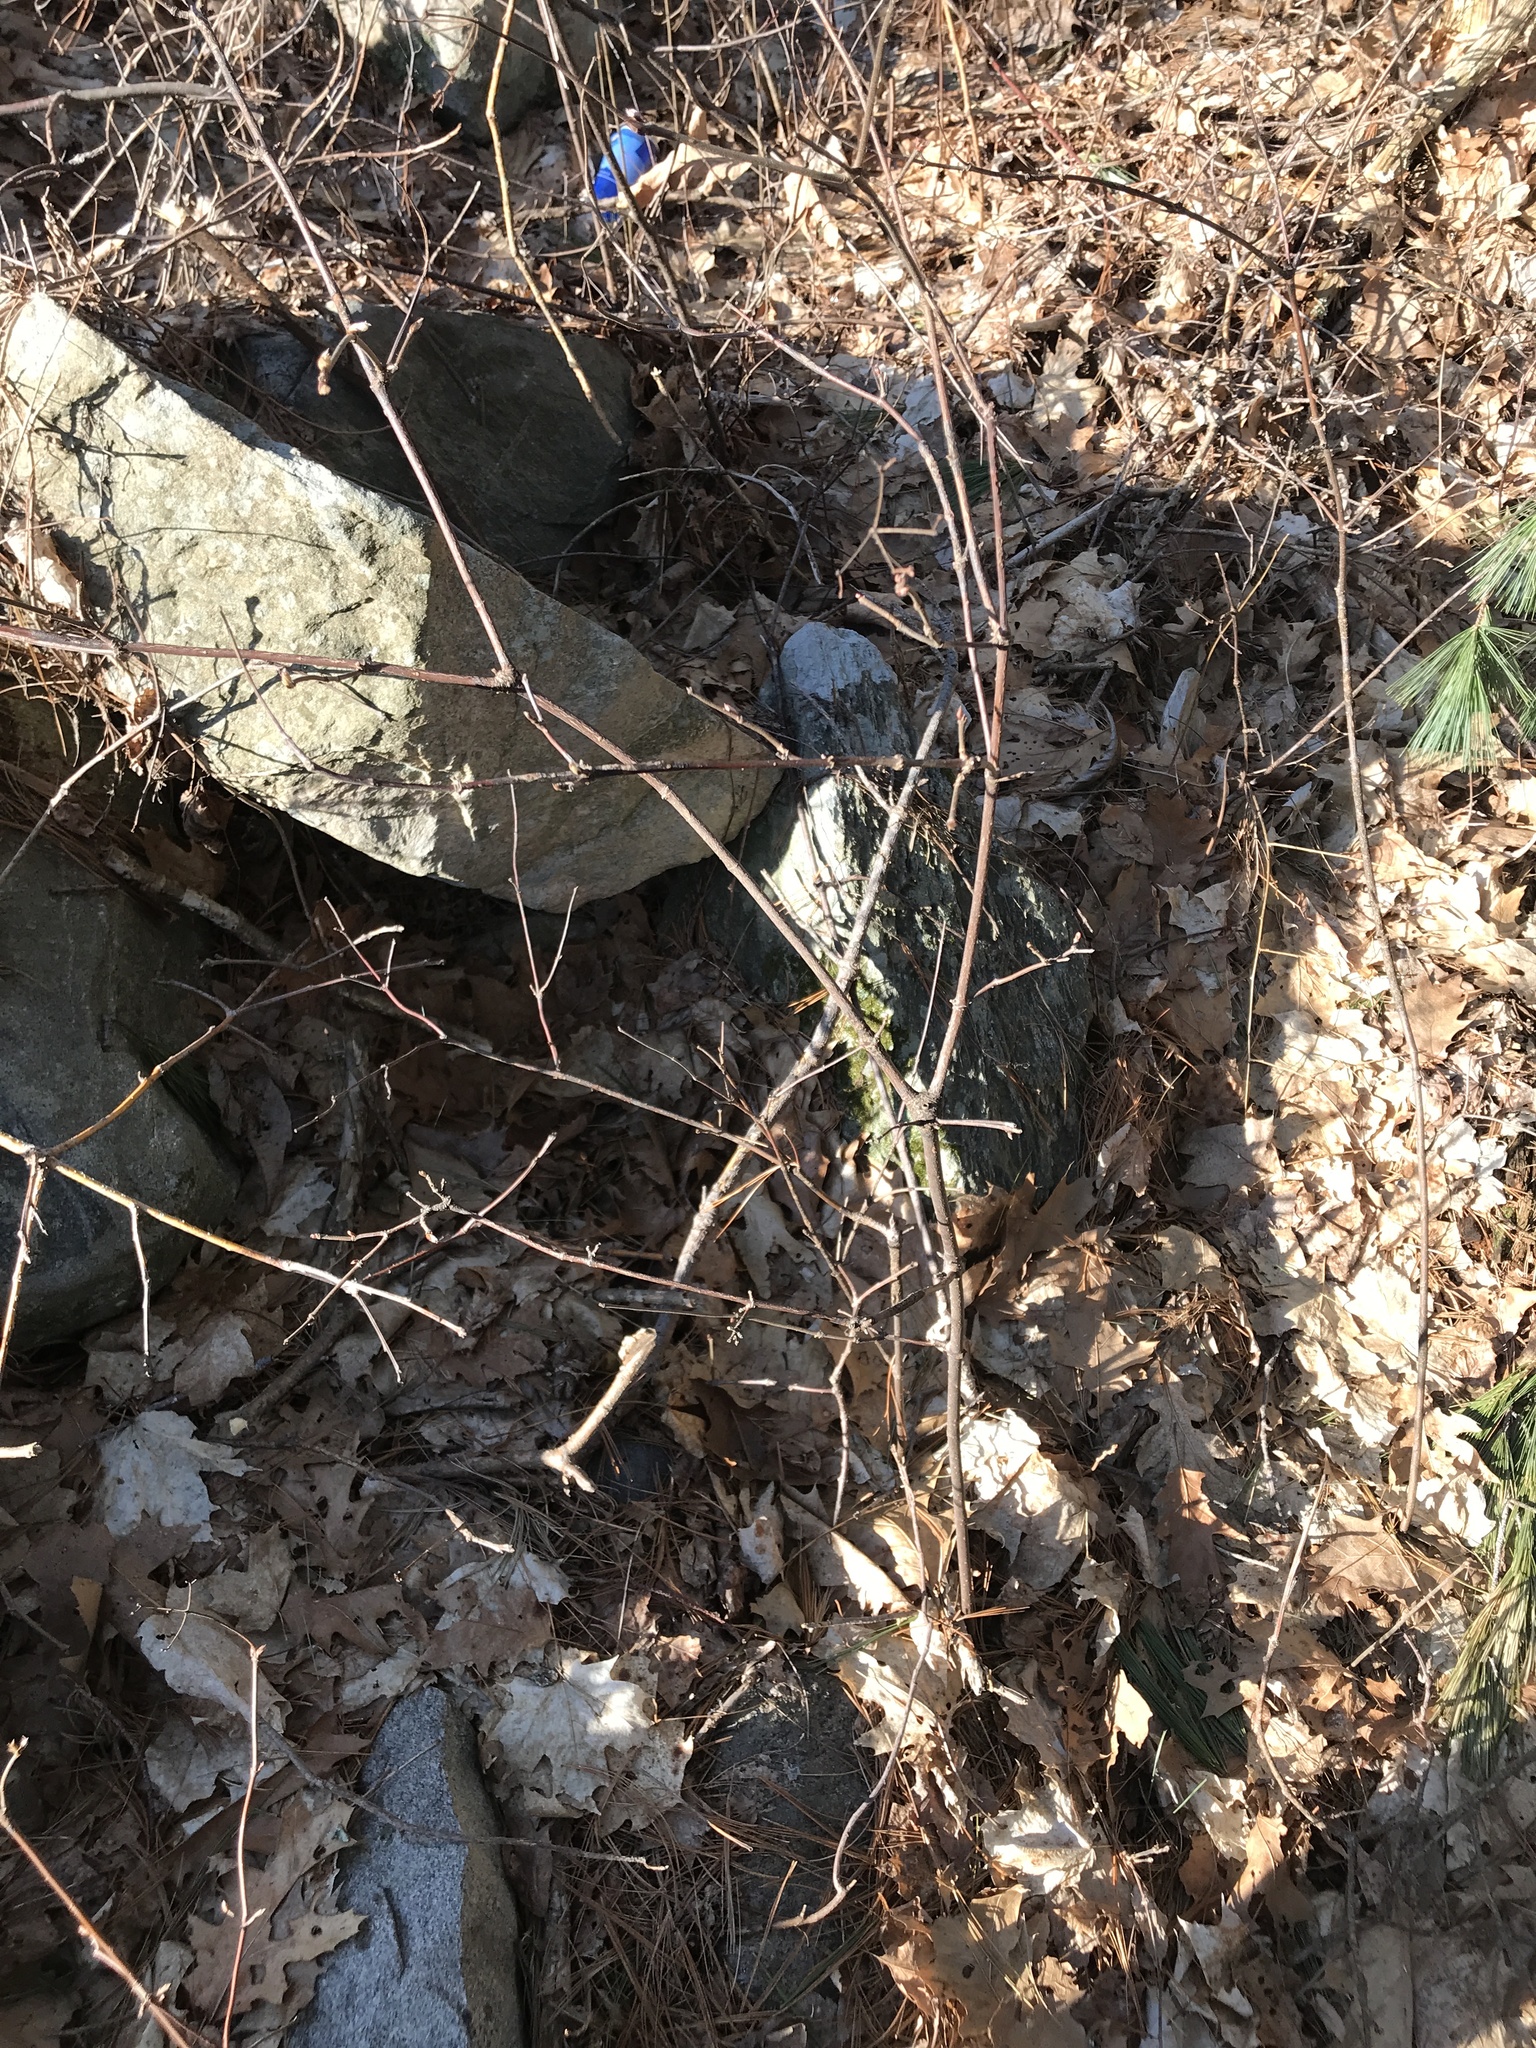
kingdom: Plantae
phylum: Tracheophyta
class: Magnoliopsida
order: Dipsacales
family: Viburnaceae
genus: Viburnum
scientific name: Viburnum acerifolium
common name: Dockmackie
